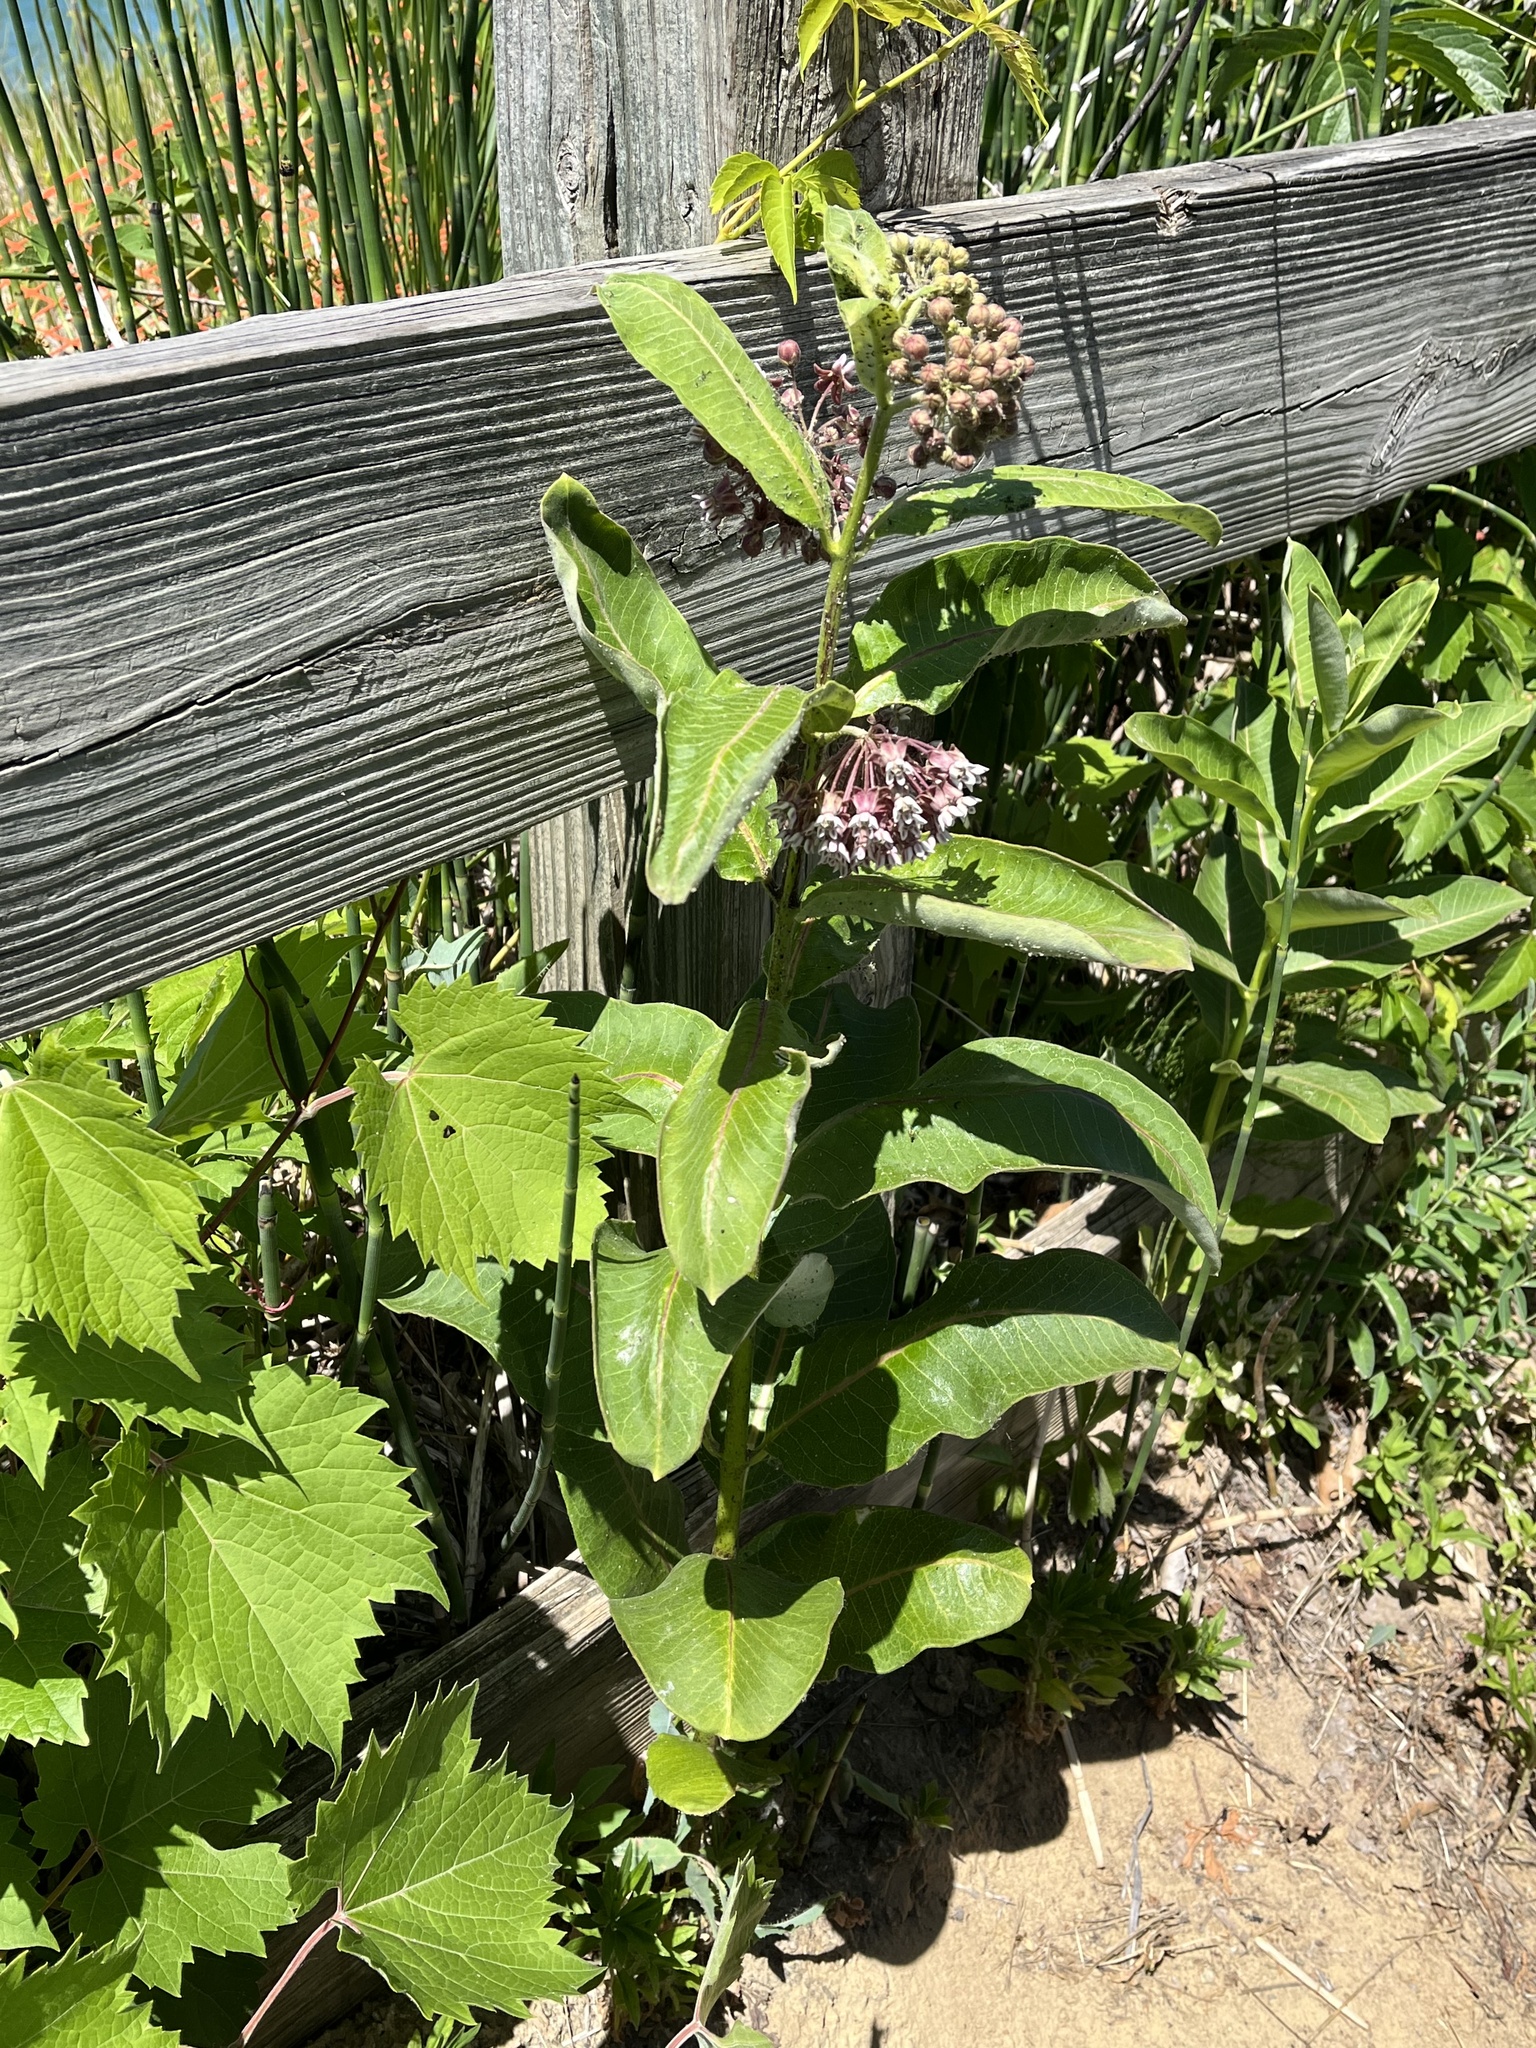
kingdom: Plantae
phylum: Tracheophyta
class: Magnoliopsida
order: Gentianales
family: Apocynaceae
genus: Asclepias
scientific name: Asclepias syriaca
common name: Common milkweed
